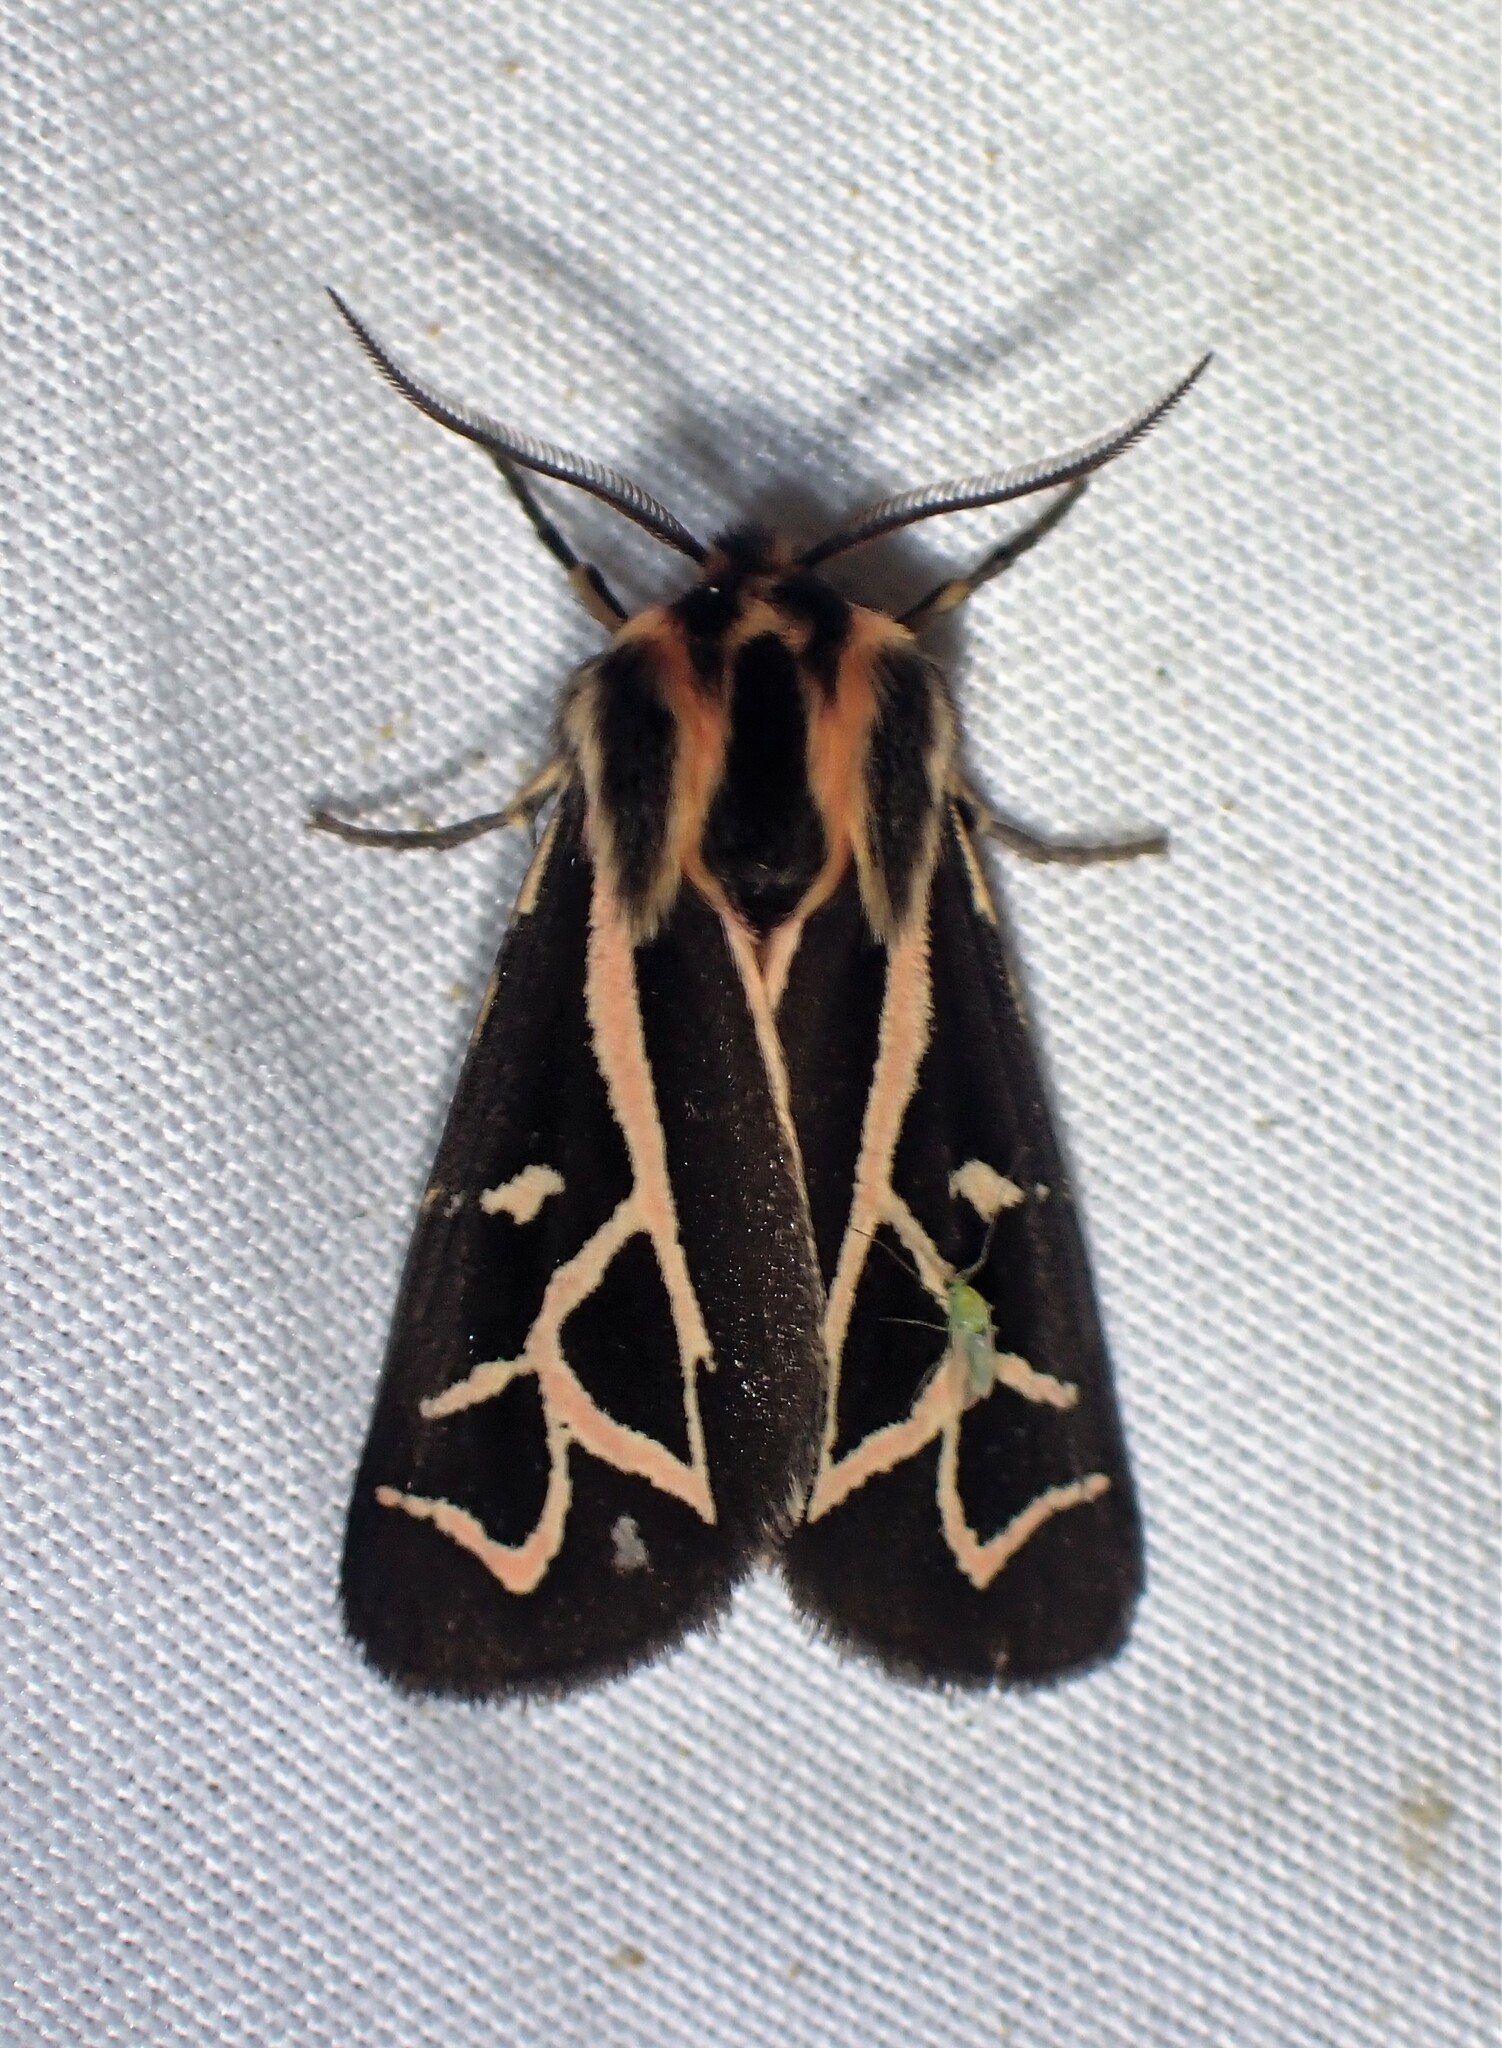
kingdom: Animalia
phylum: Arthropoda
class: Insecta
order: Lepidoptera
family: Erebidae
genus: Apantesis
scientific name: Apantesis
